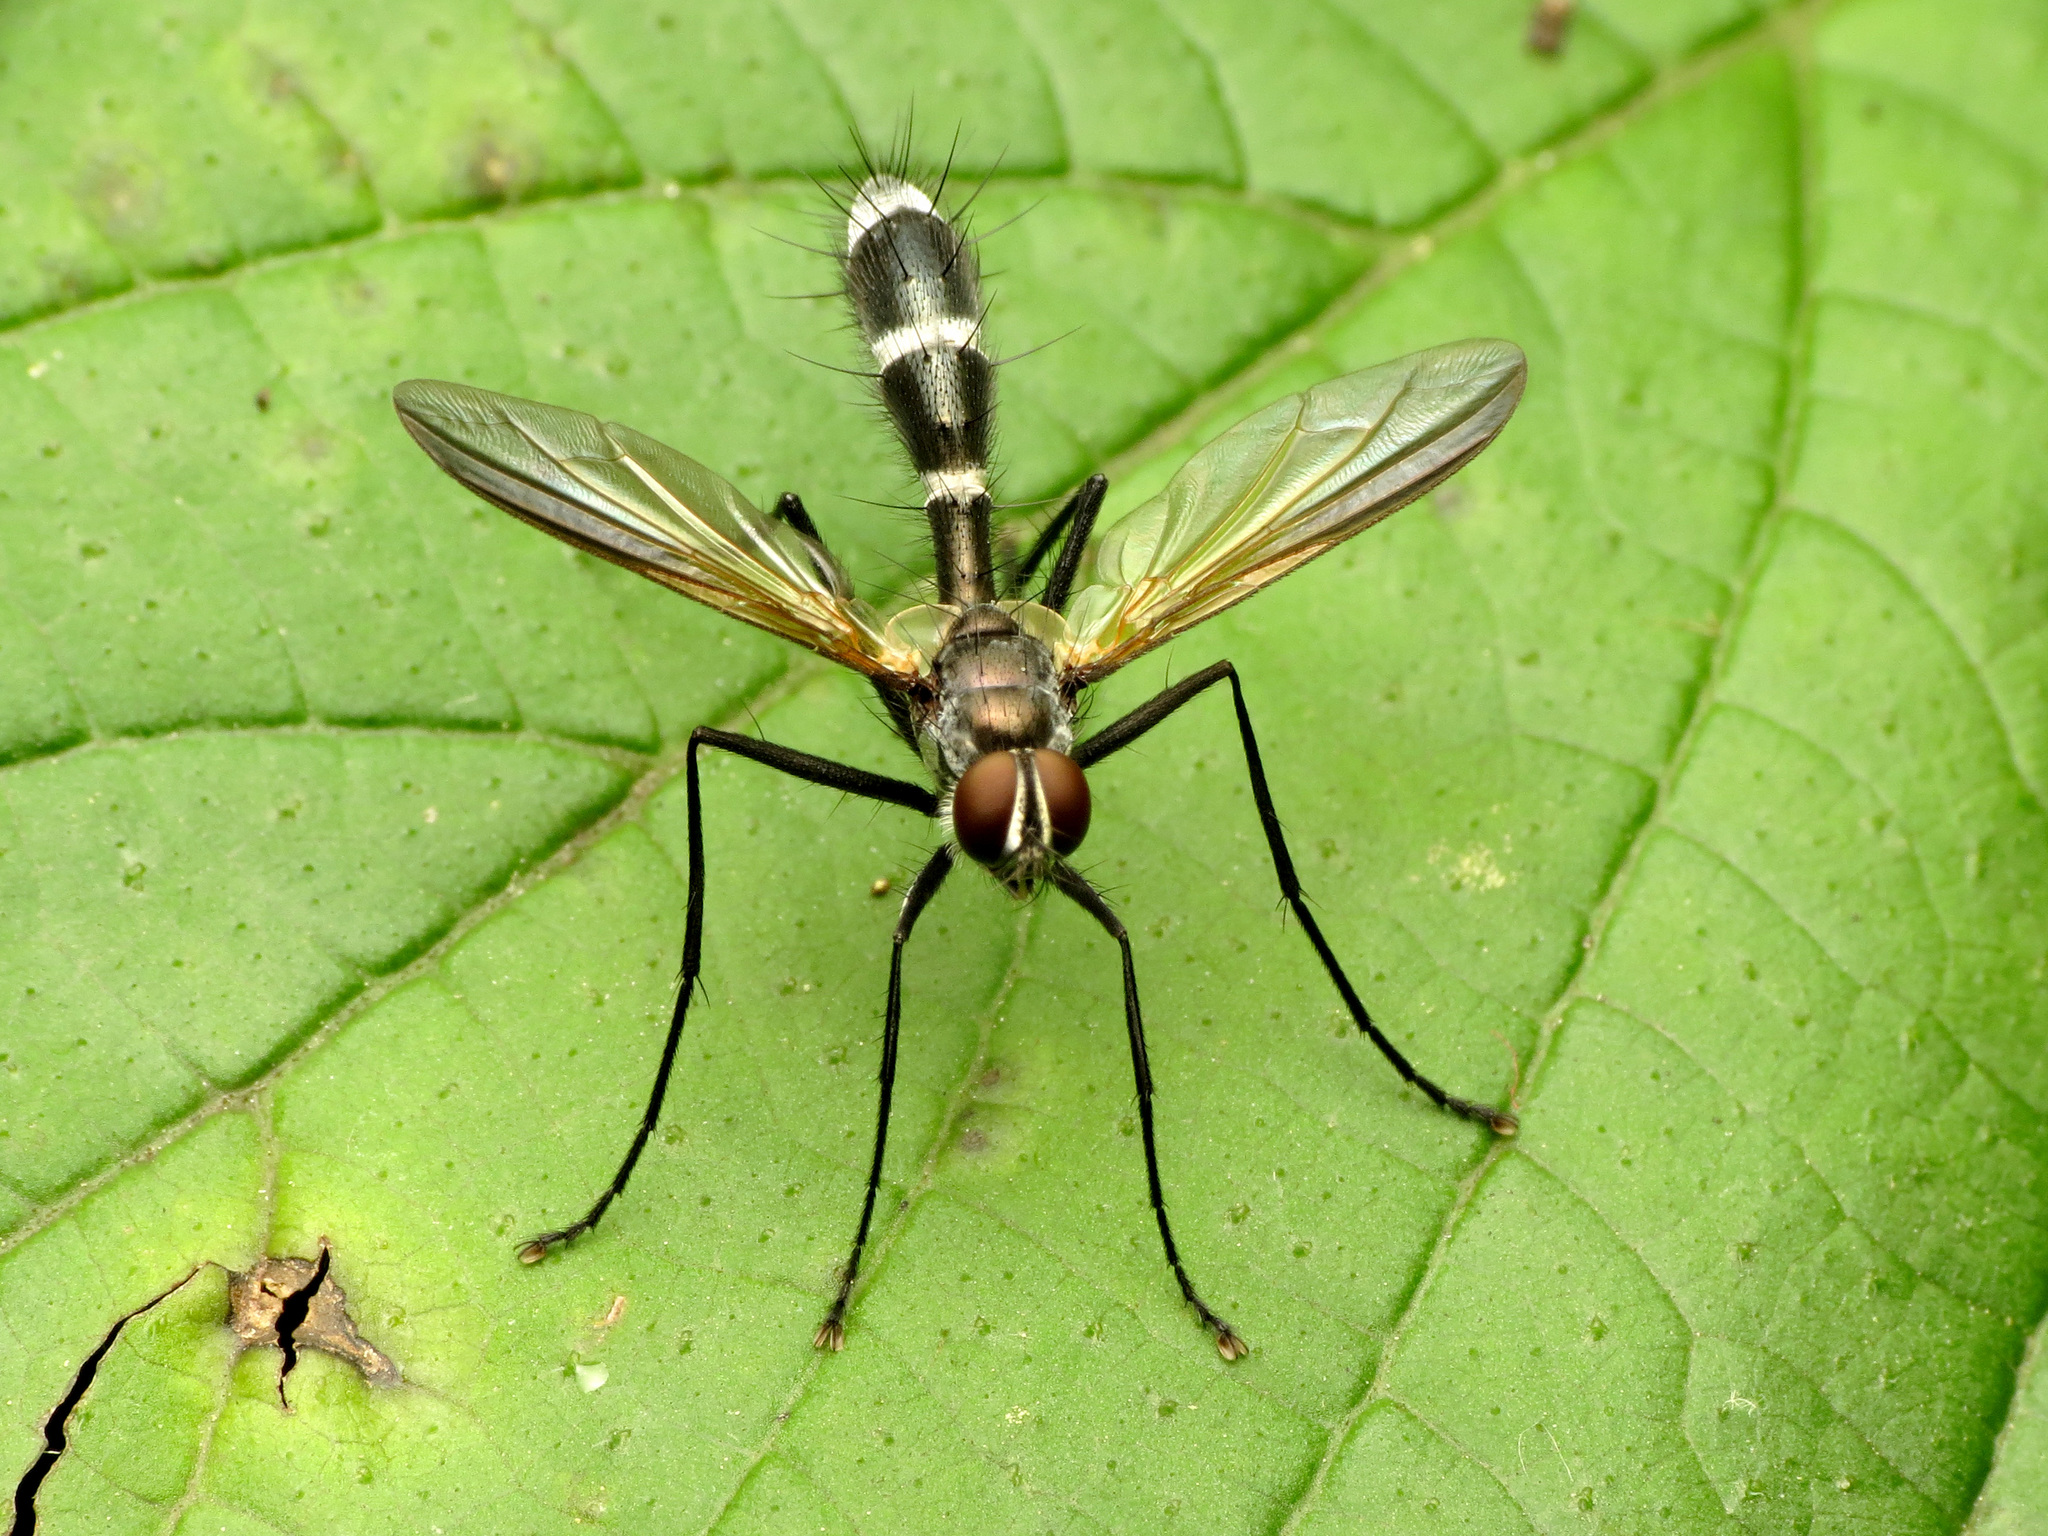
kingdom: Animalia
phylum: Arthropoda
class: Insecta
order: Diptera
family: Tachinidae
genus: Cordyligaster
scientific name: Cordyligaster septentrionalis
